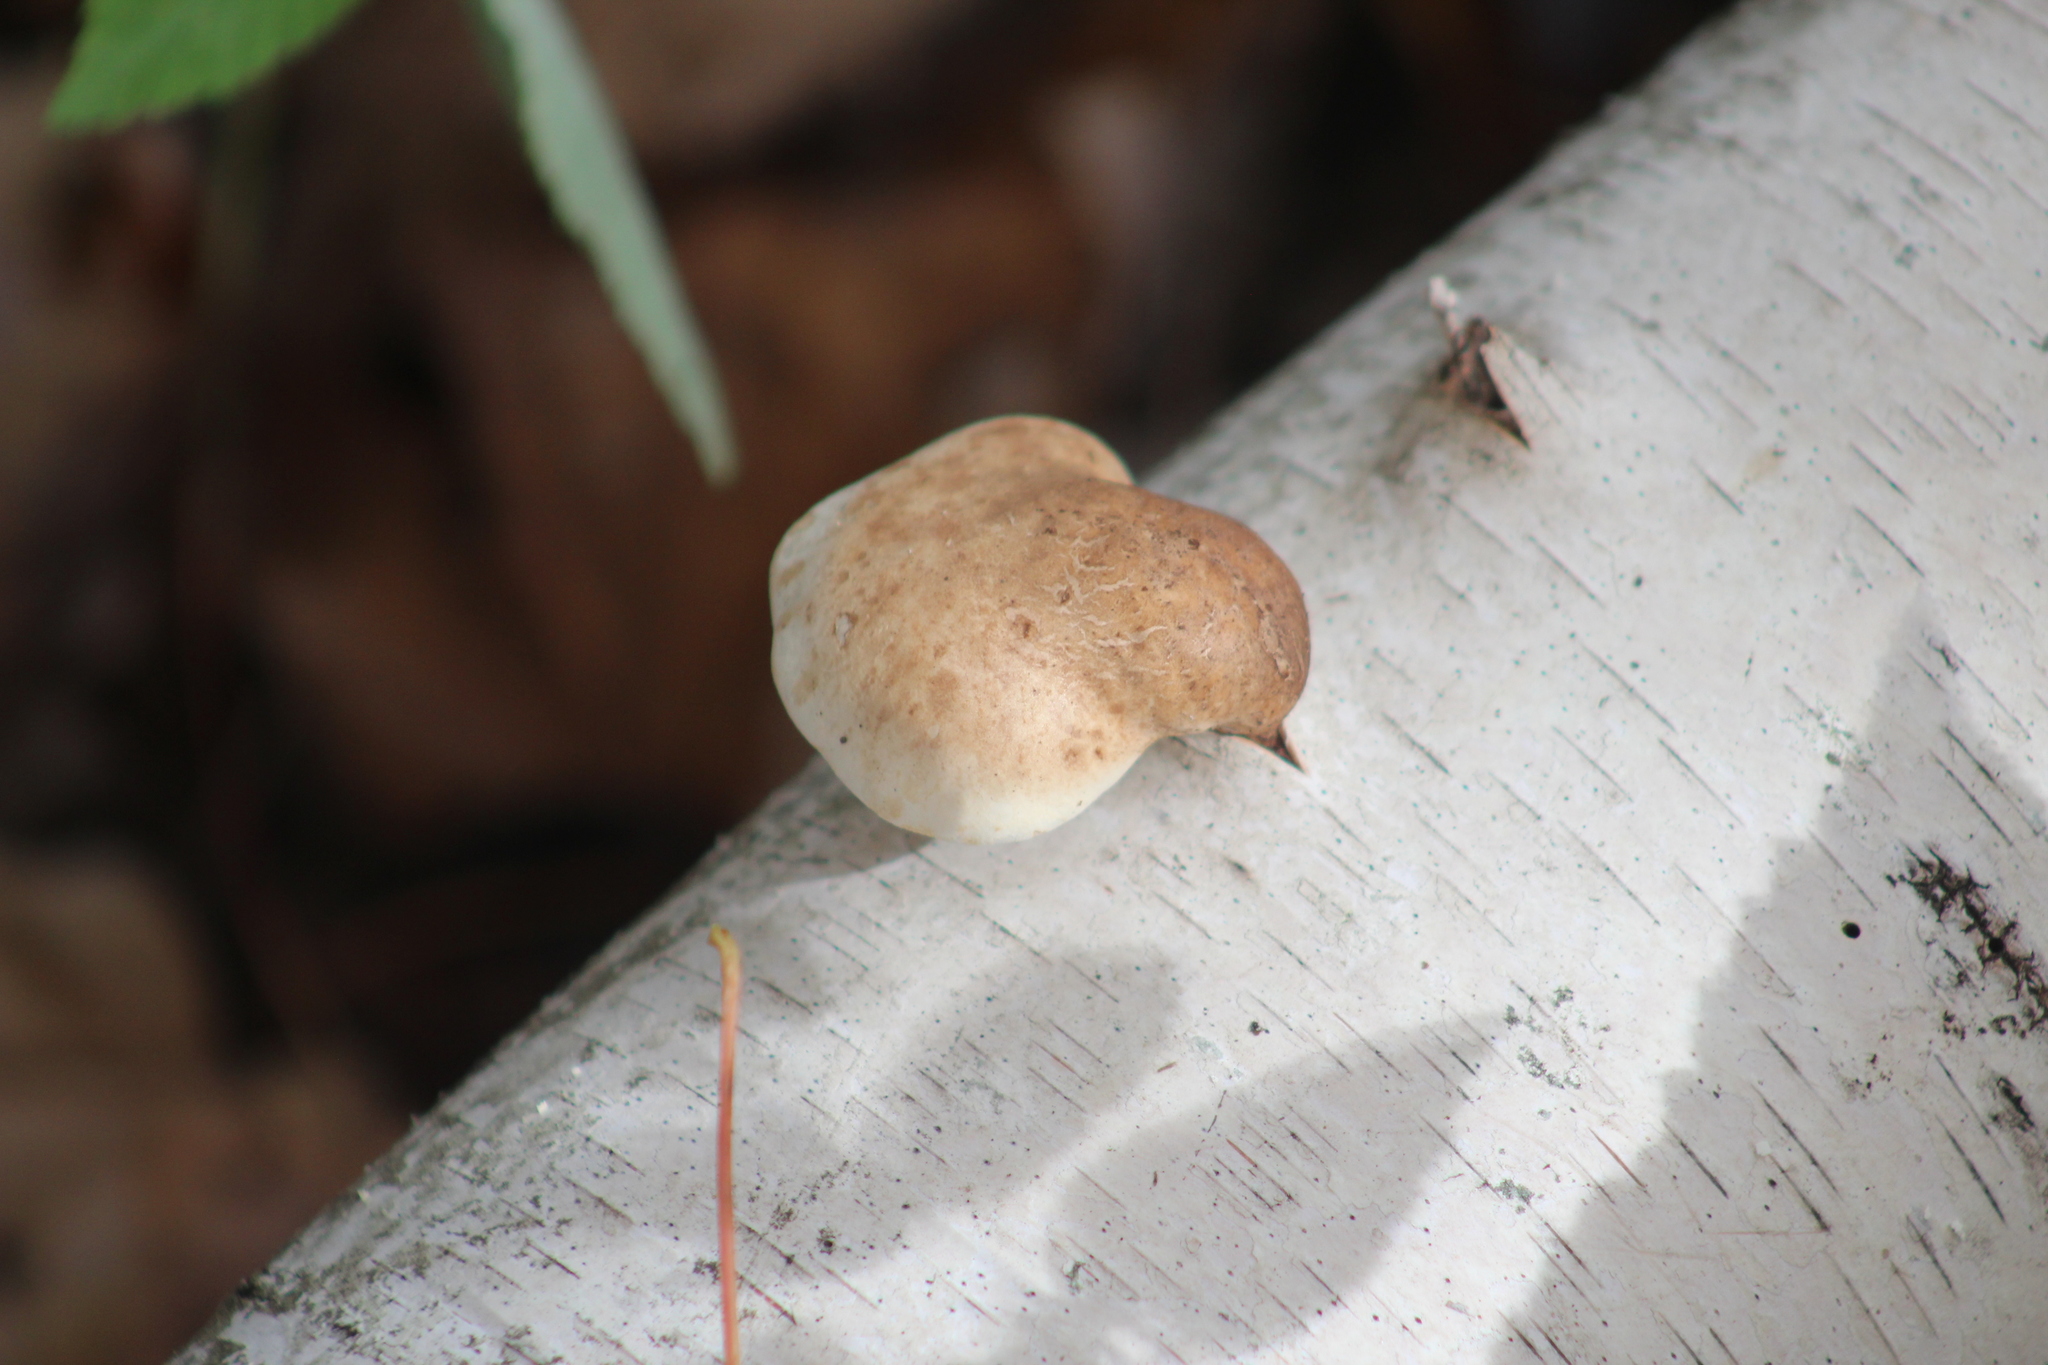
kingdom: Fungi
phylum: Basidiomycota
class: Agaricomycetes
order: Polyporales
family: Fomitopsidaceae
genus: Fomitopsis
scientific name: Fomitopsis betulina
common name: Birch polypore
